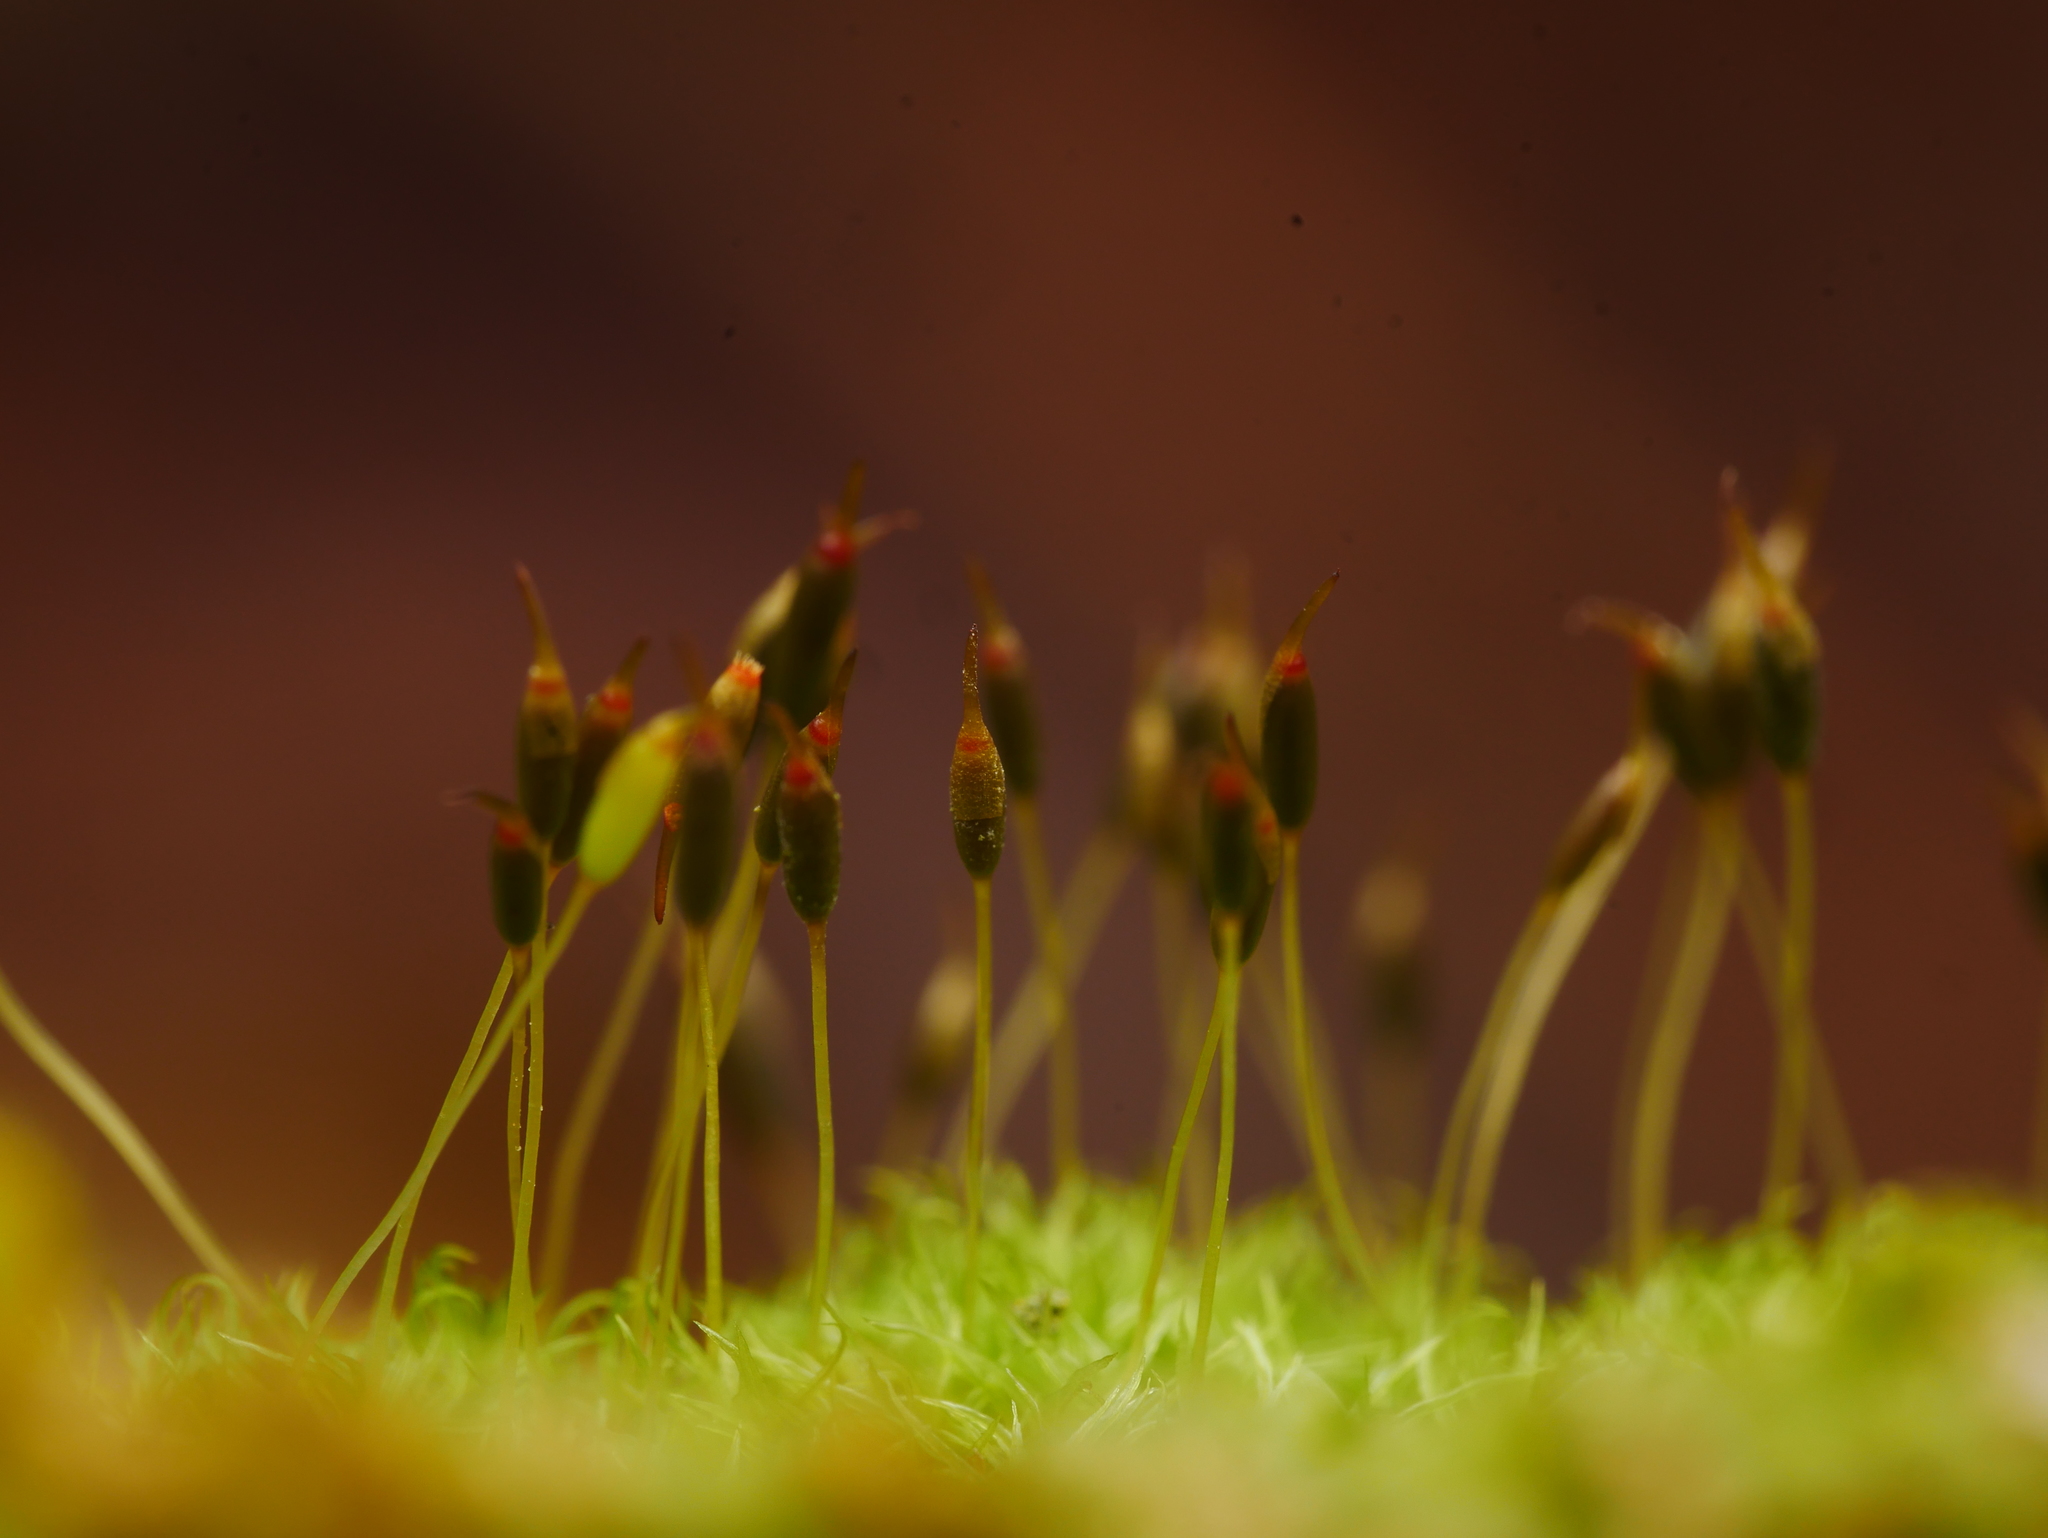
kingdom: Plantae
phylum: Bryophyta
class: Bryopsida
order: Dicranales
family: Rhabdoweisiaceae
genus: Dicranoweisia
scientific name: Dicranoweisia cirrata
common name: Common pincushion
